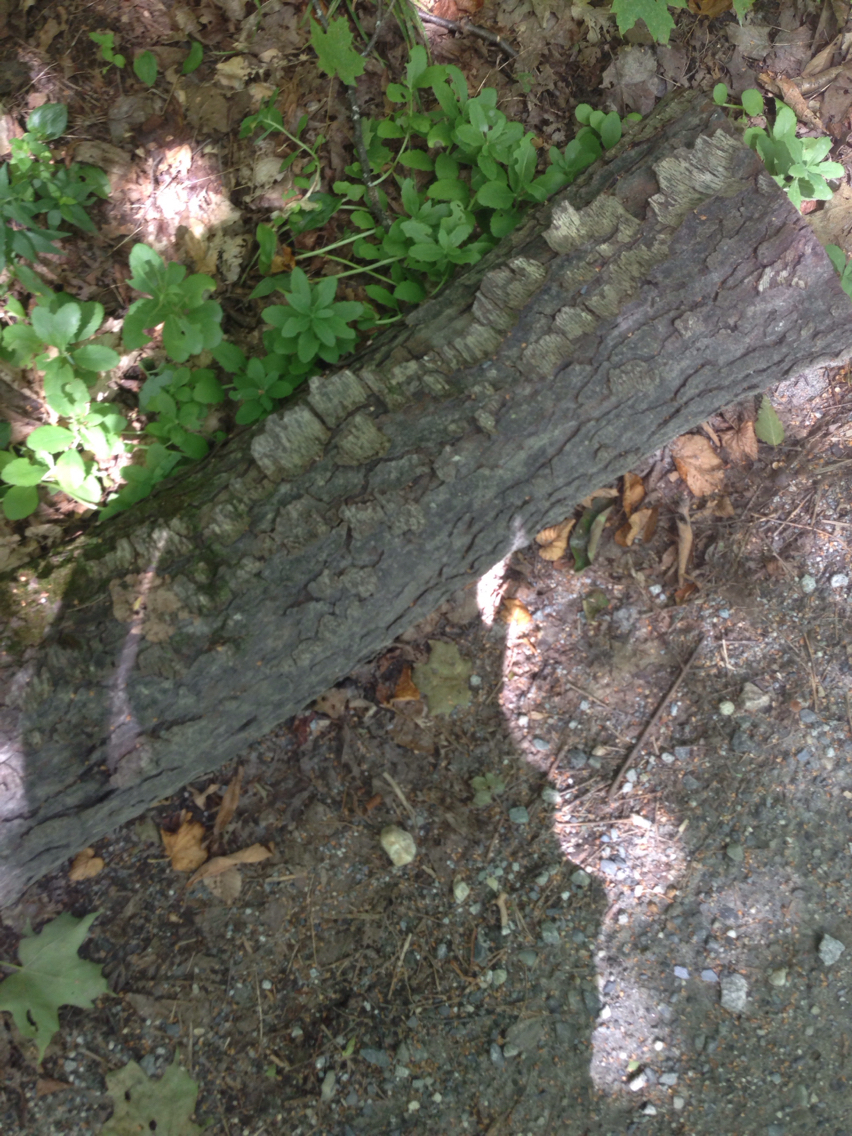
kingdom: Plantae
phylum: Tracheophyta
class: Magnoliopsida
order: Rosales
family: Rosaceae
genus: Prunus
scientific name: Prunus serotina
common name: Black cherry
